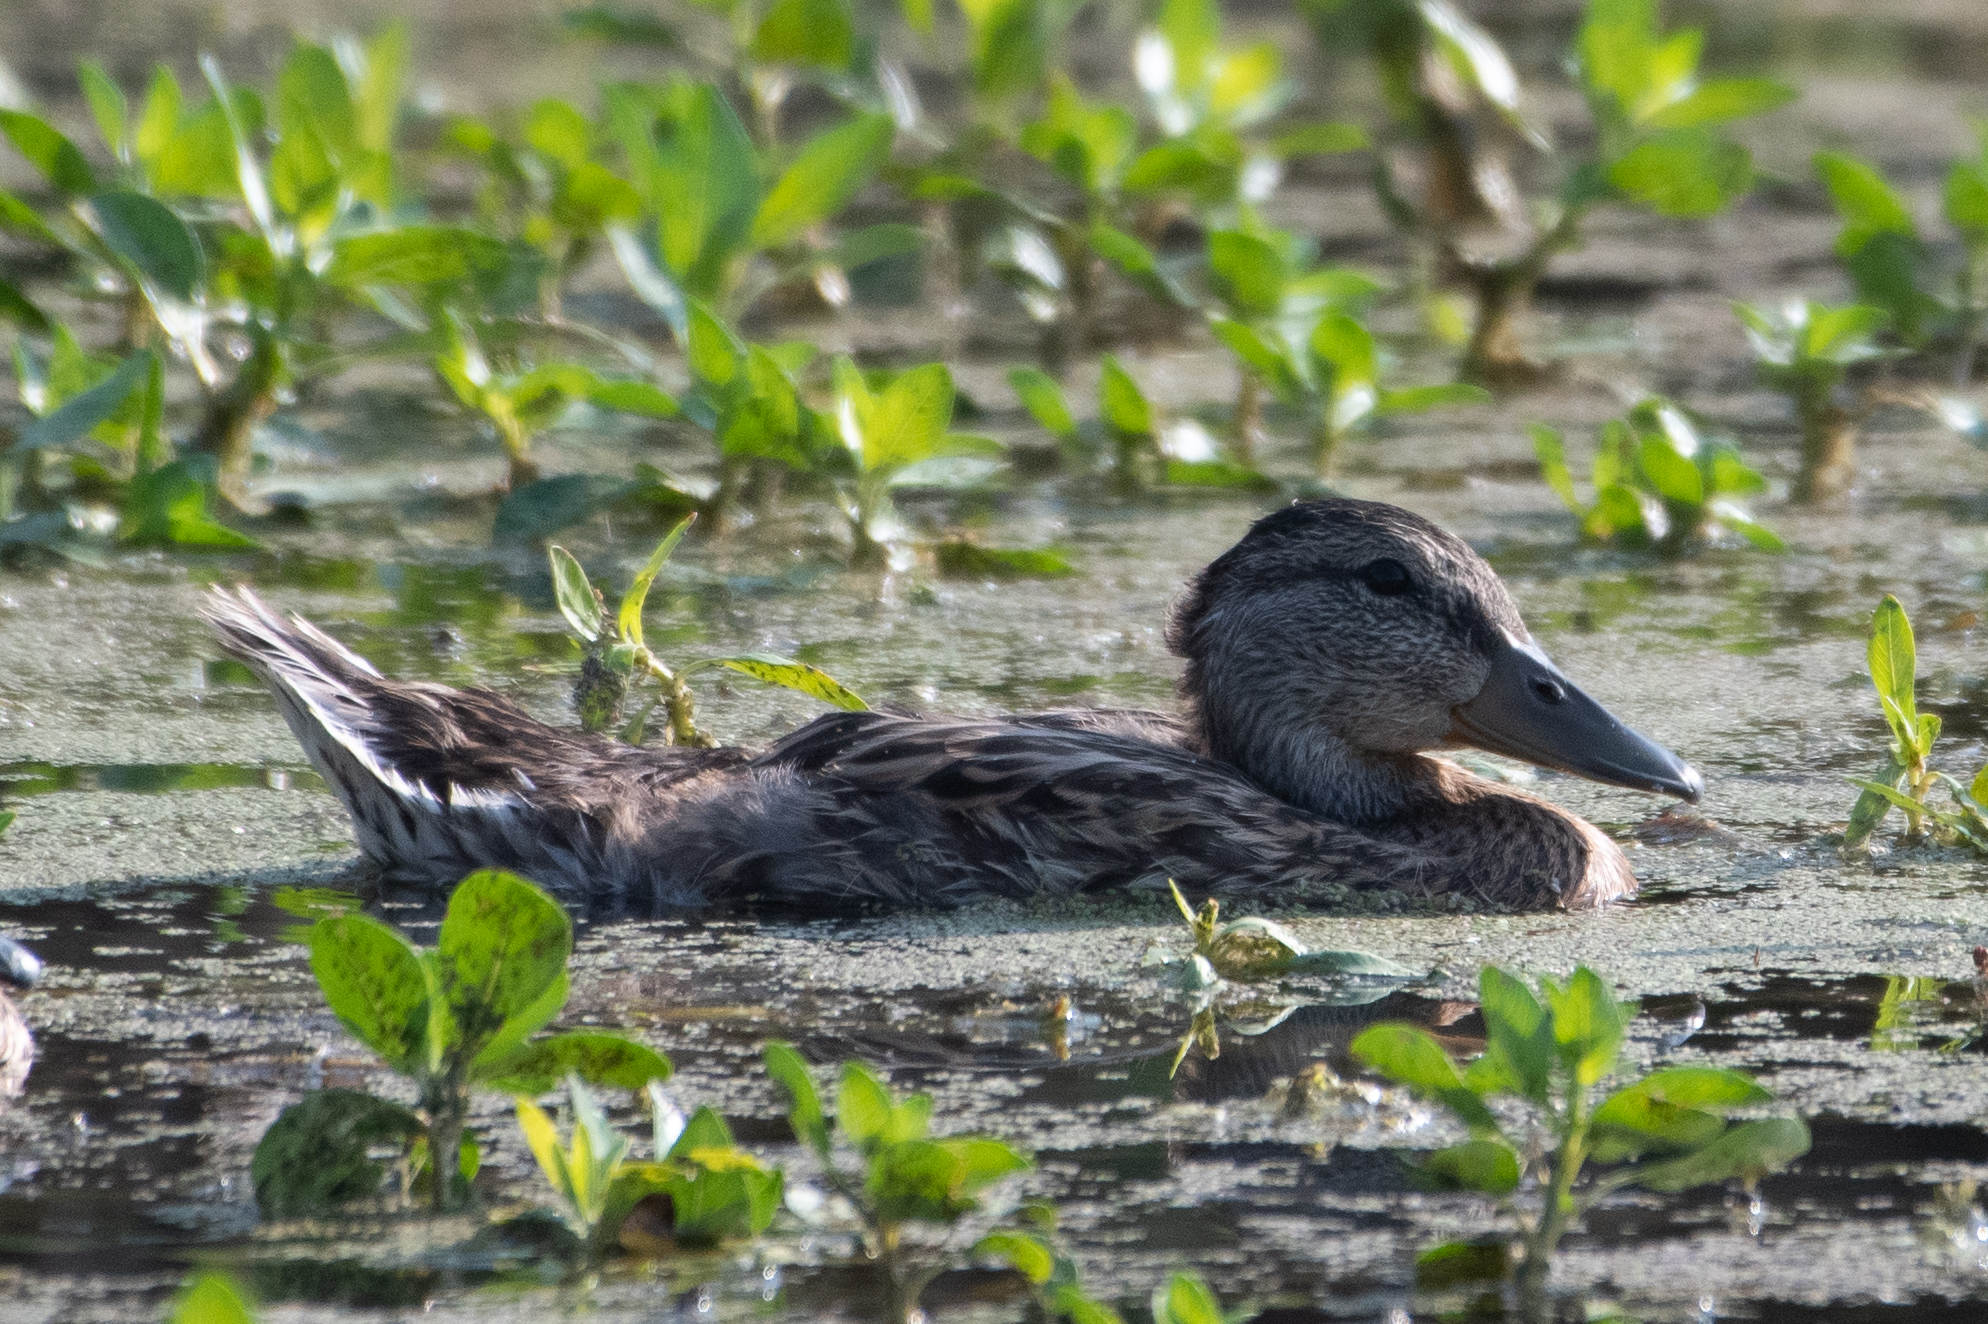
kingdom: Animalia
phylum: Chordata
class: Aves
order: Anseriformes
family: Anatidae
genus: Anas
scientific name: Anas platyrhynchos
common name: Mallard
